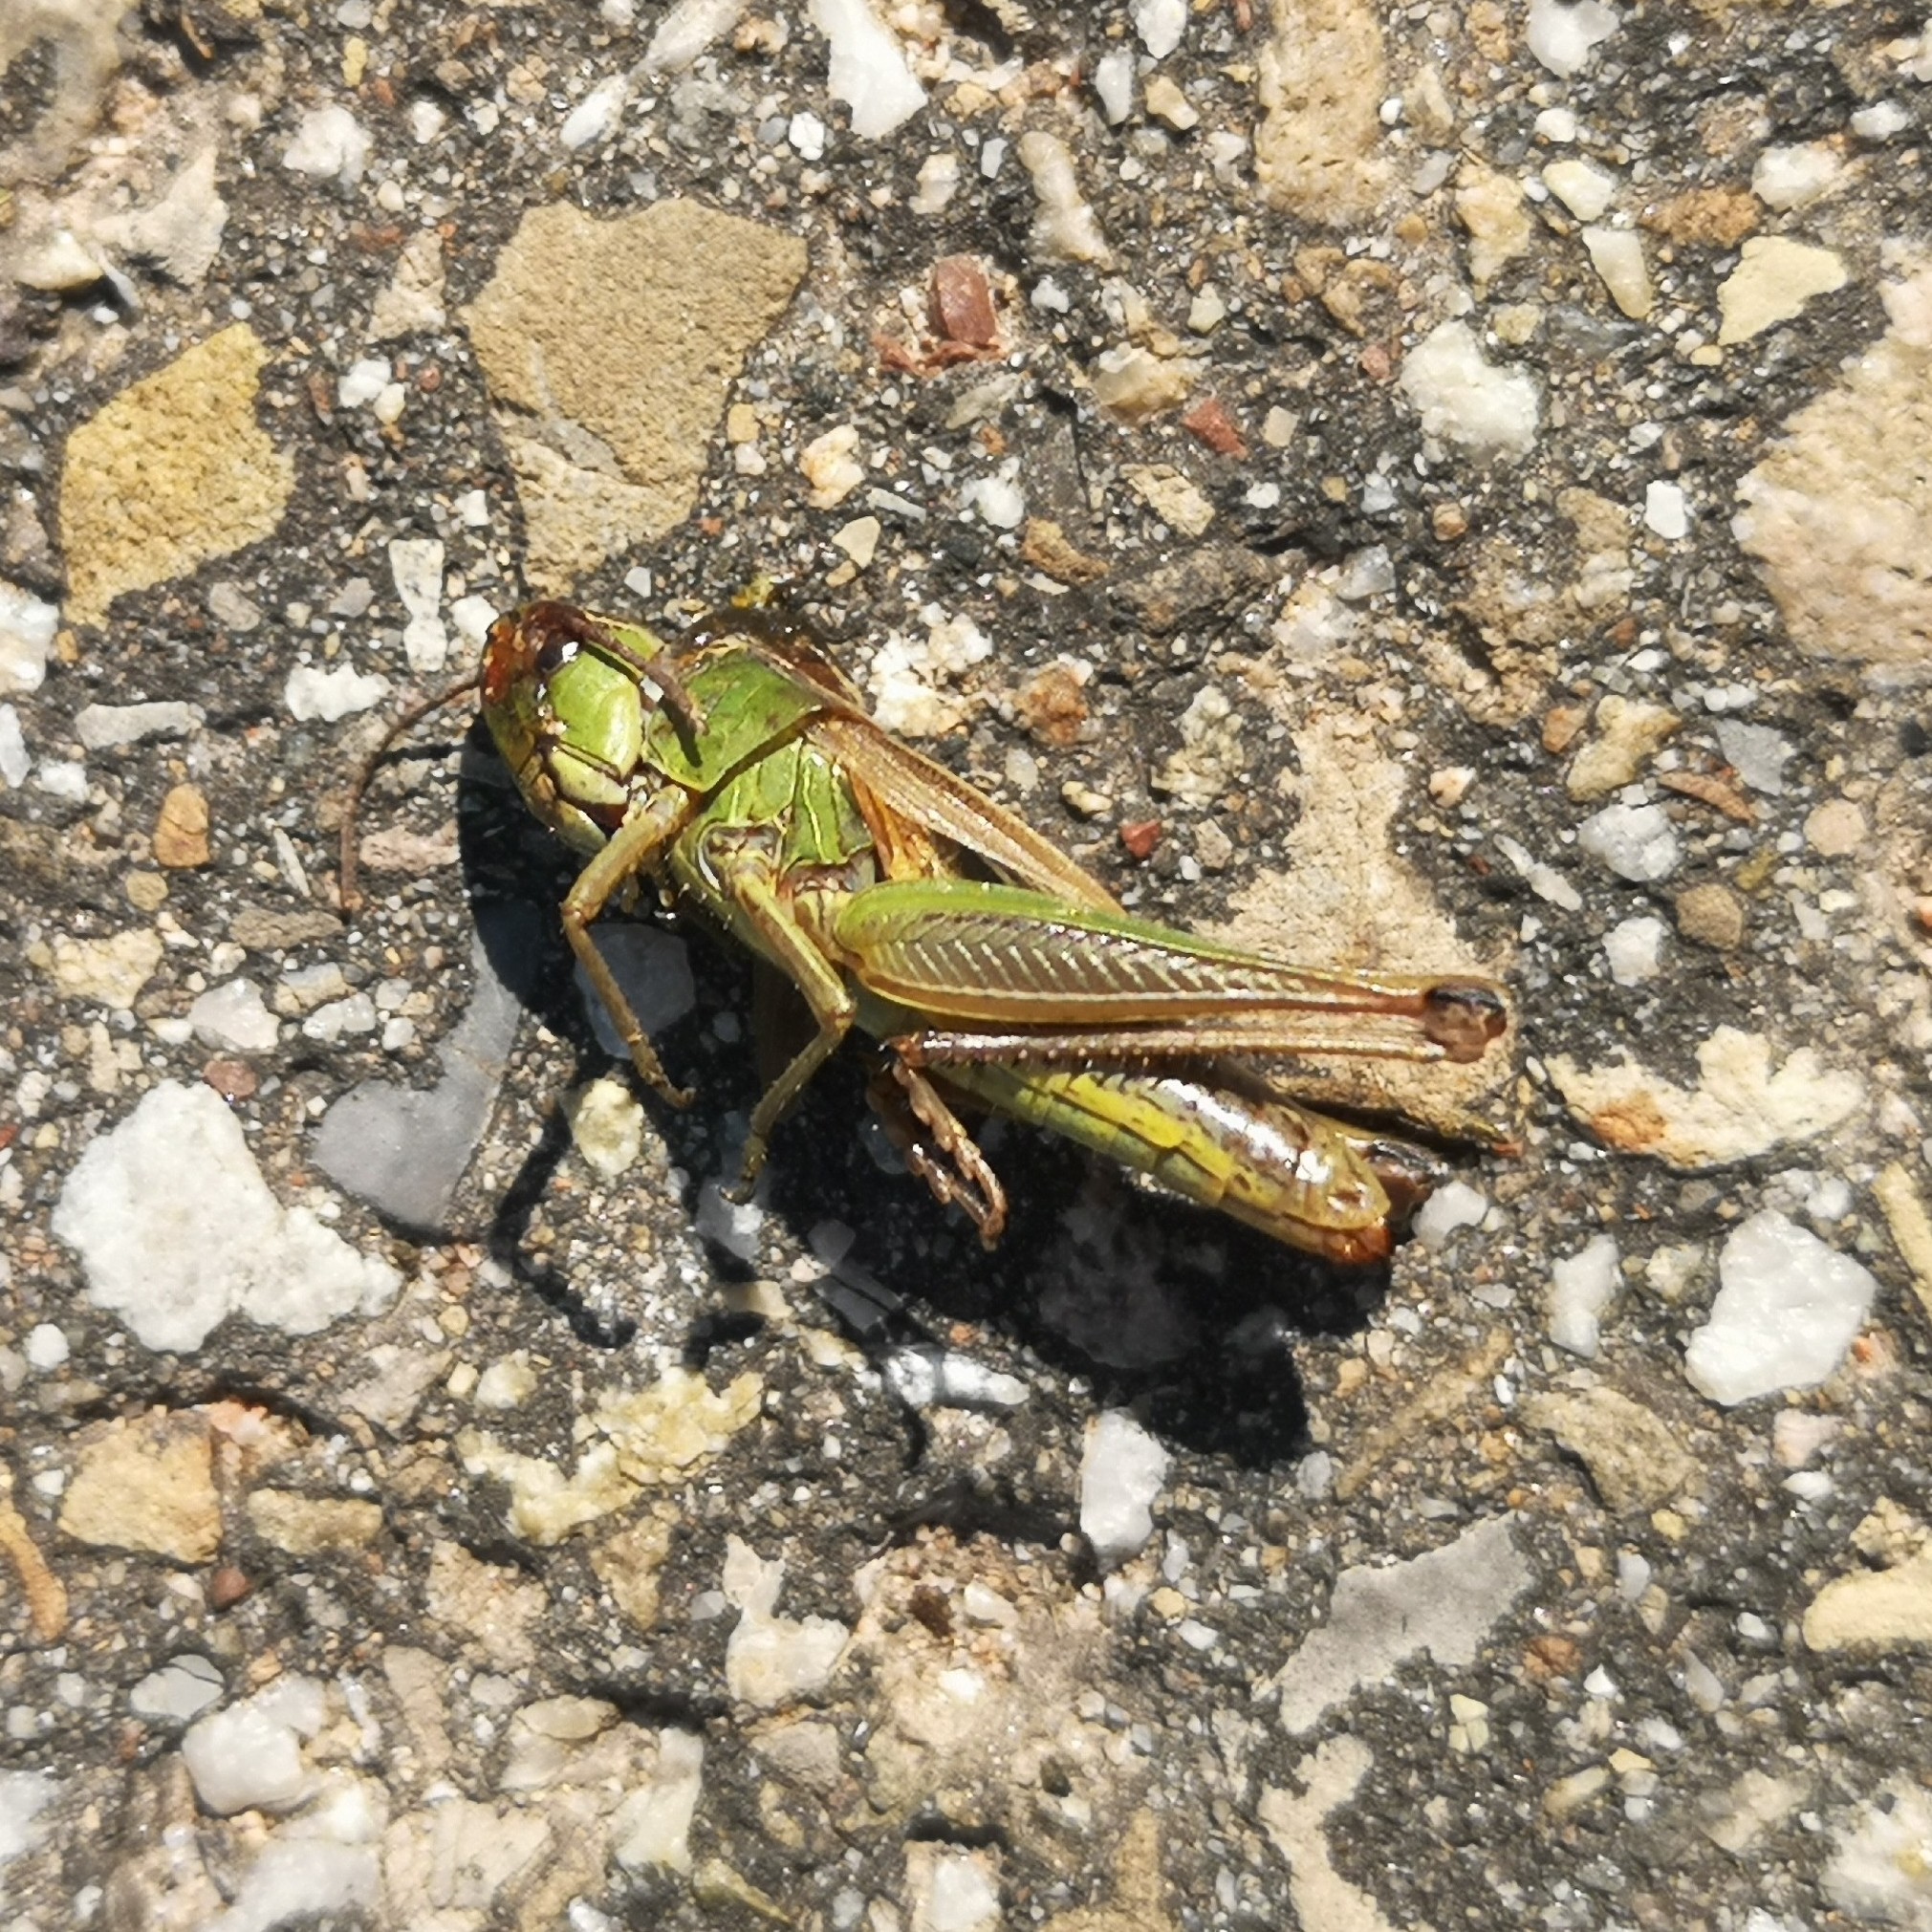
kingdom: Animalia
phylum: Arthropoda
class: Insecta
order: Orthoptera
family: Acrididae
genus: Pseudochorthippus
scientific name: Pseudochorthippus parallelus
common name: Meadow grasshopper
